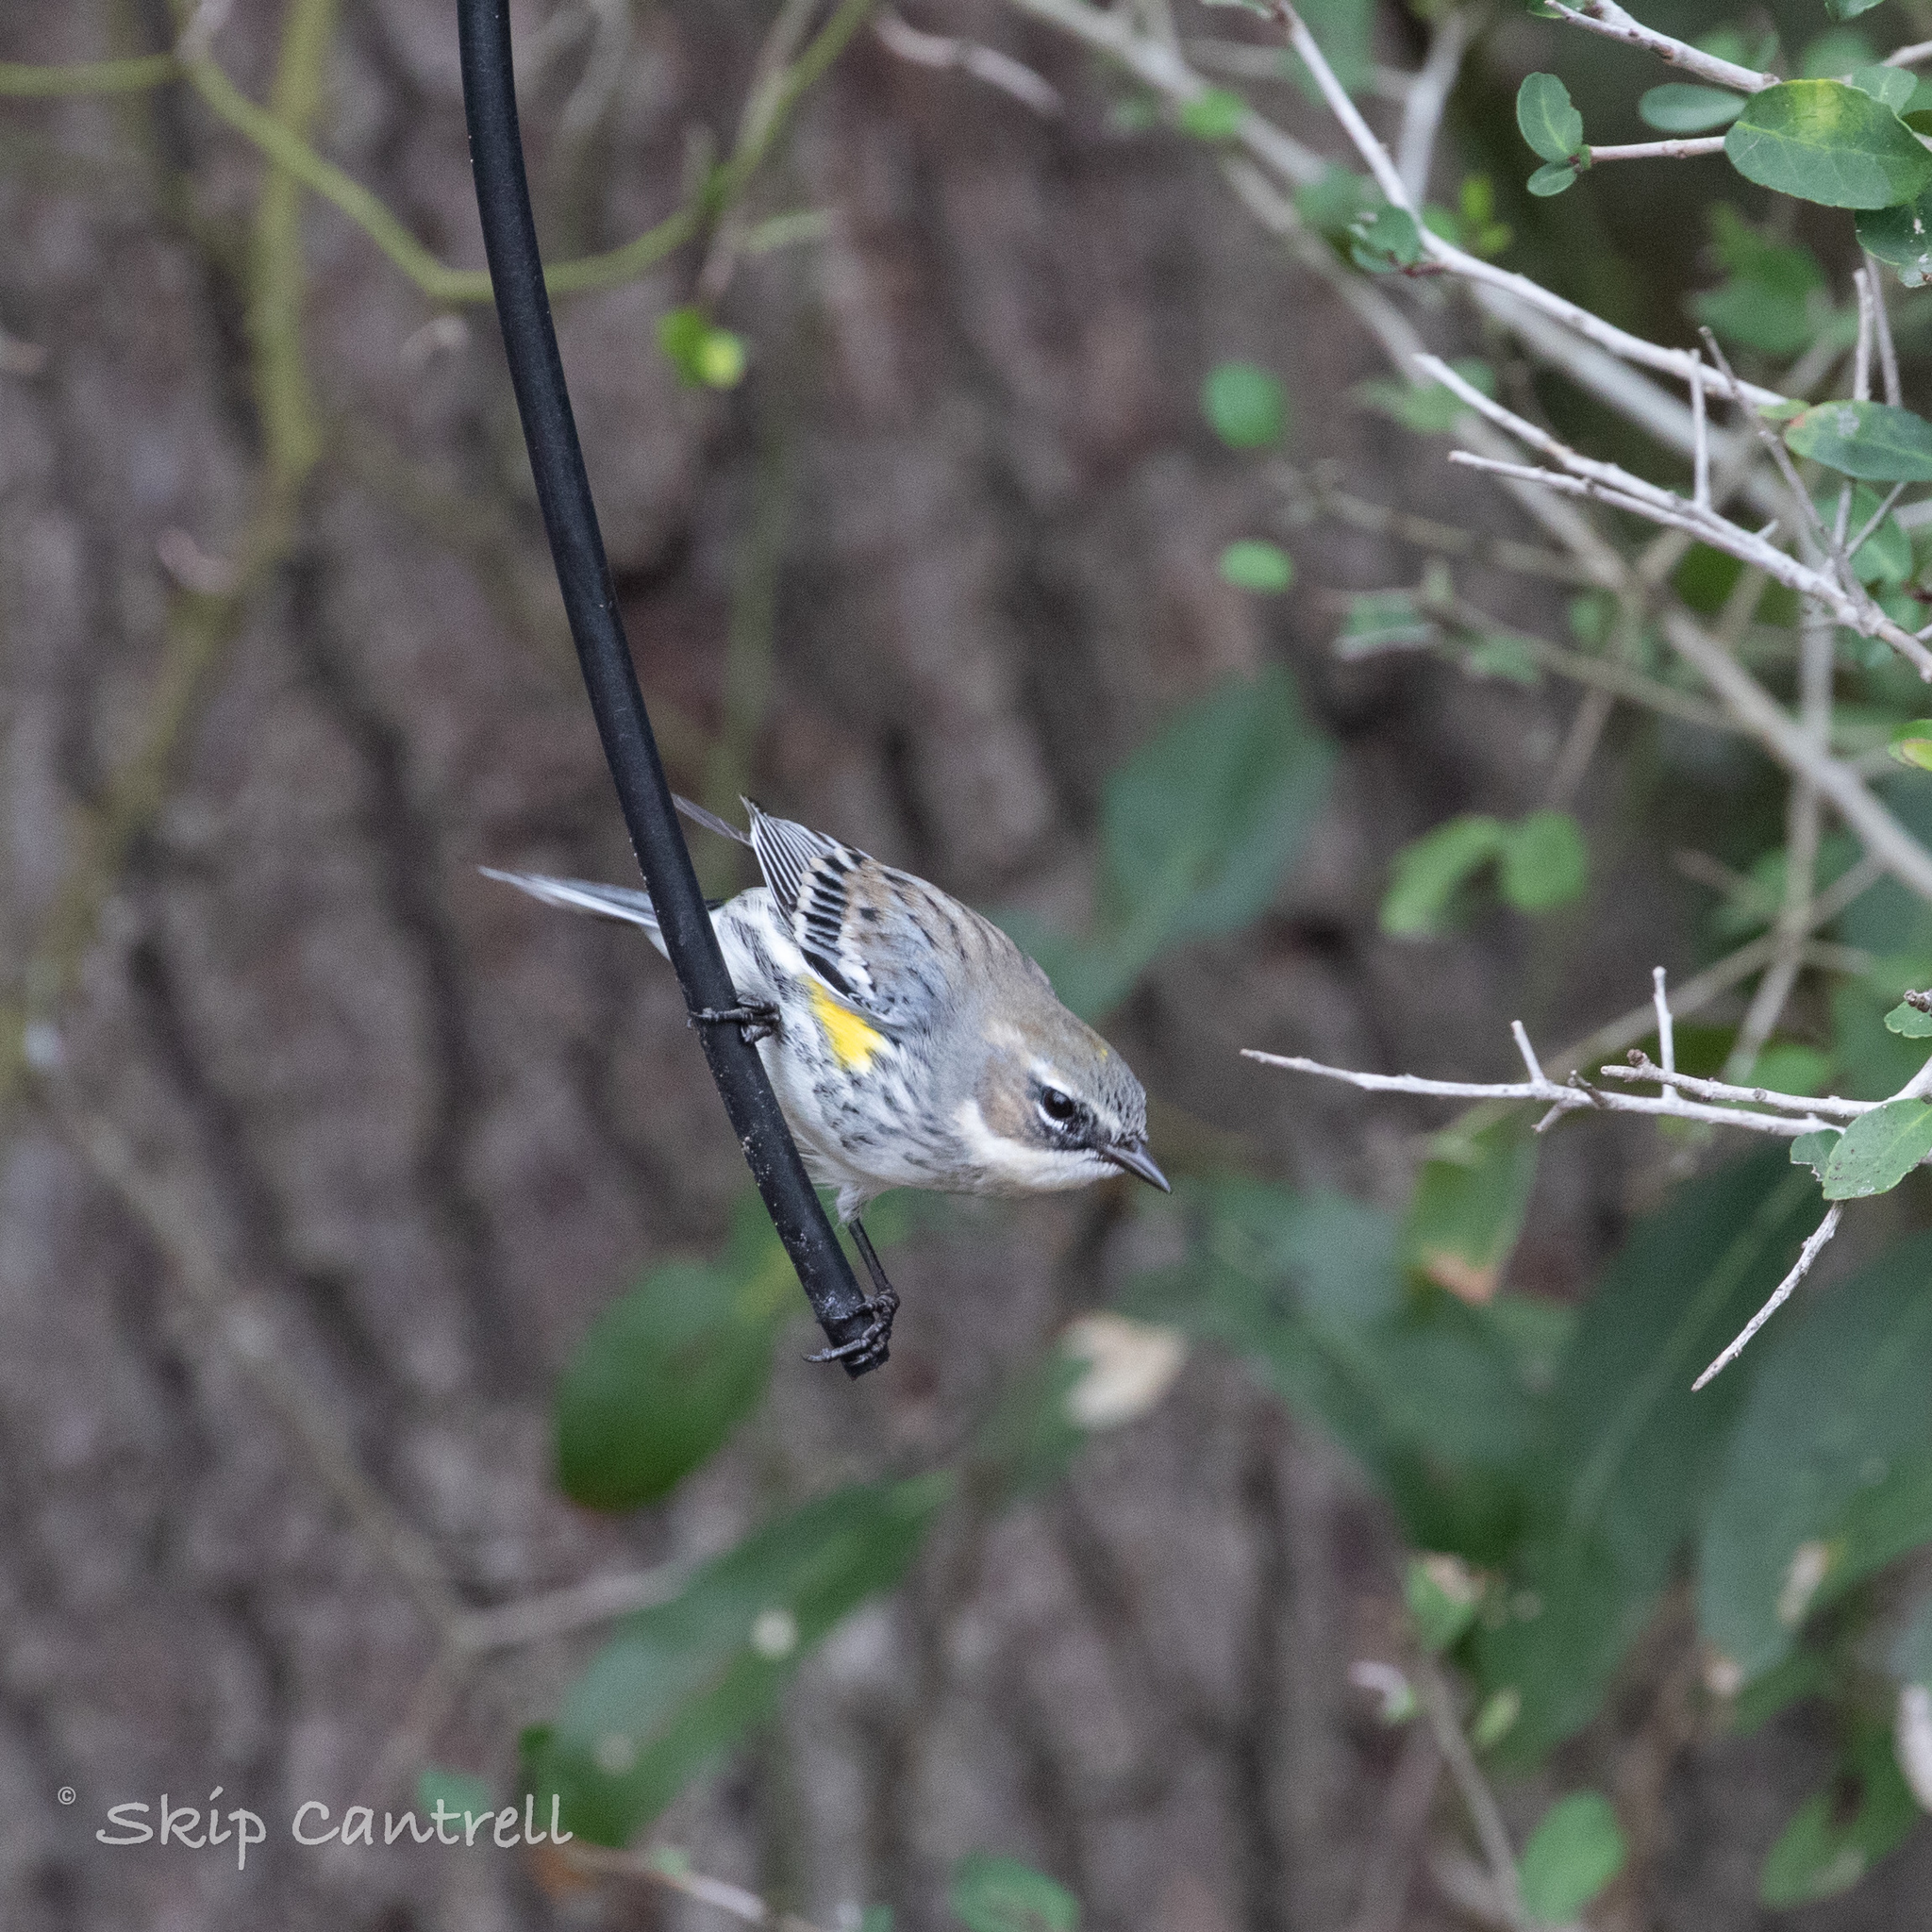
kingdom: Animalia
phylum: Chordata
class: Aves
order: Passeriformes
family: Parulidae
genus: Setophaga
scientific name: Setophaga coronata
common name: Myrtle warbler
